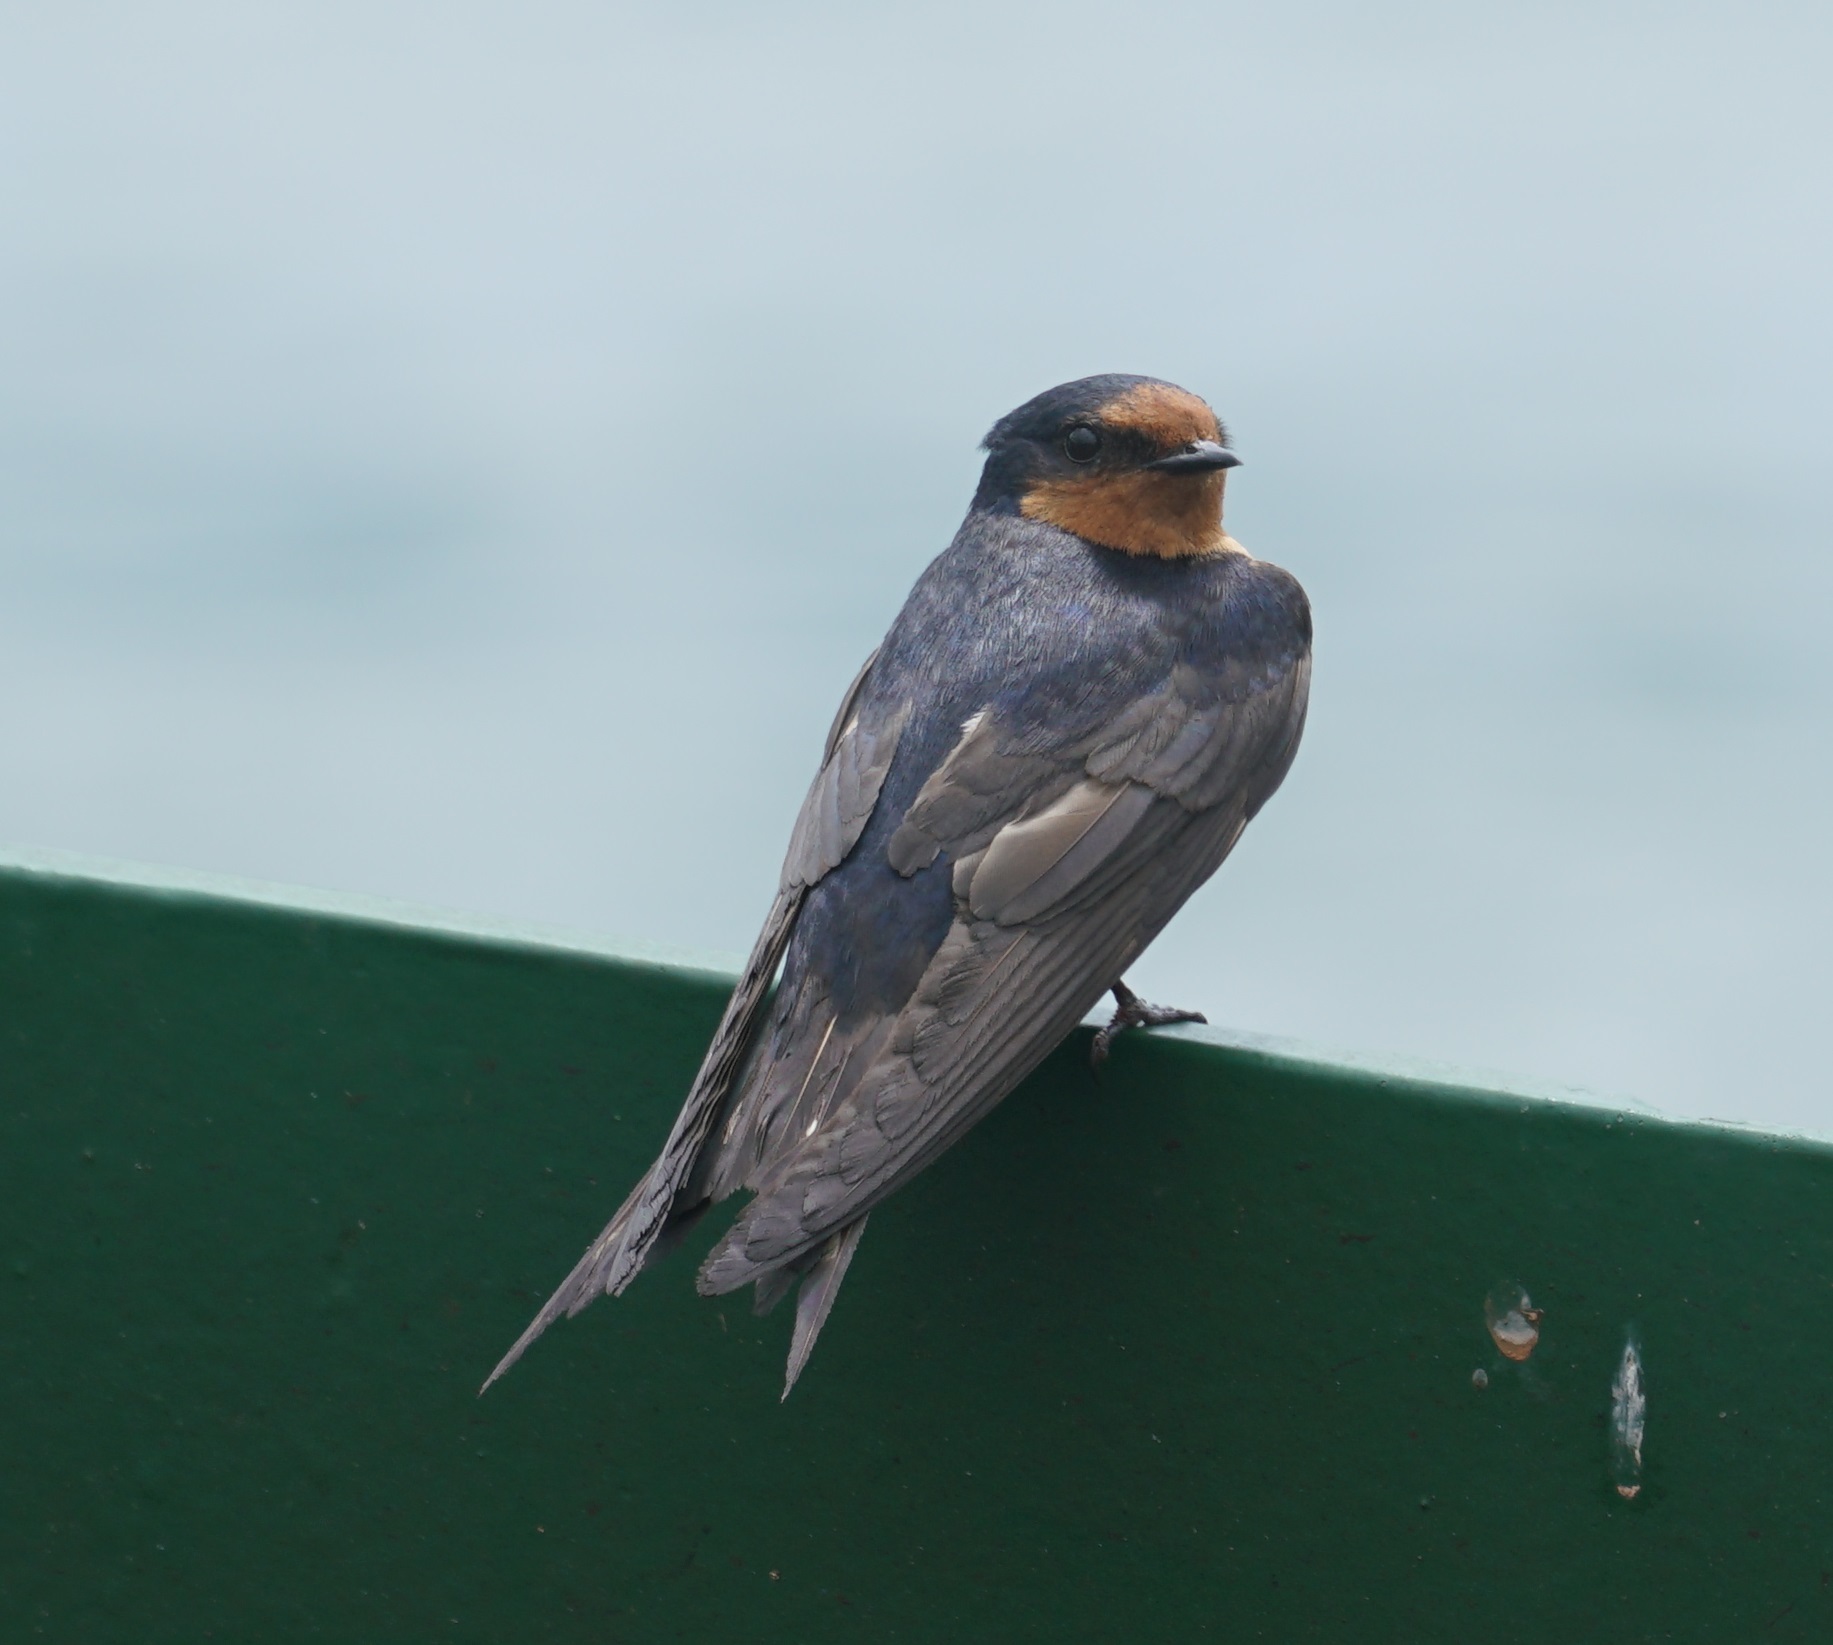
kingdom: Animalia
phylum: Chordata
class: Aves
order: Passeriformes
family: Hirundinidae
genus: Hirundo
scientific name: Hirundo neoxena
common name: Welcome swallow
